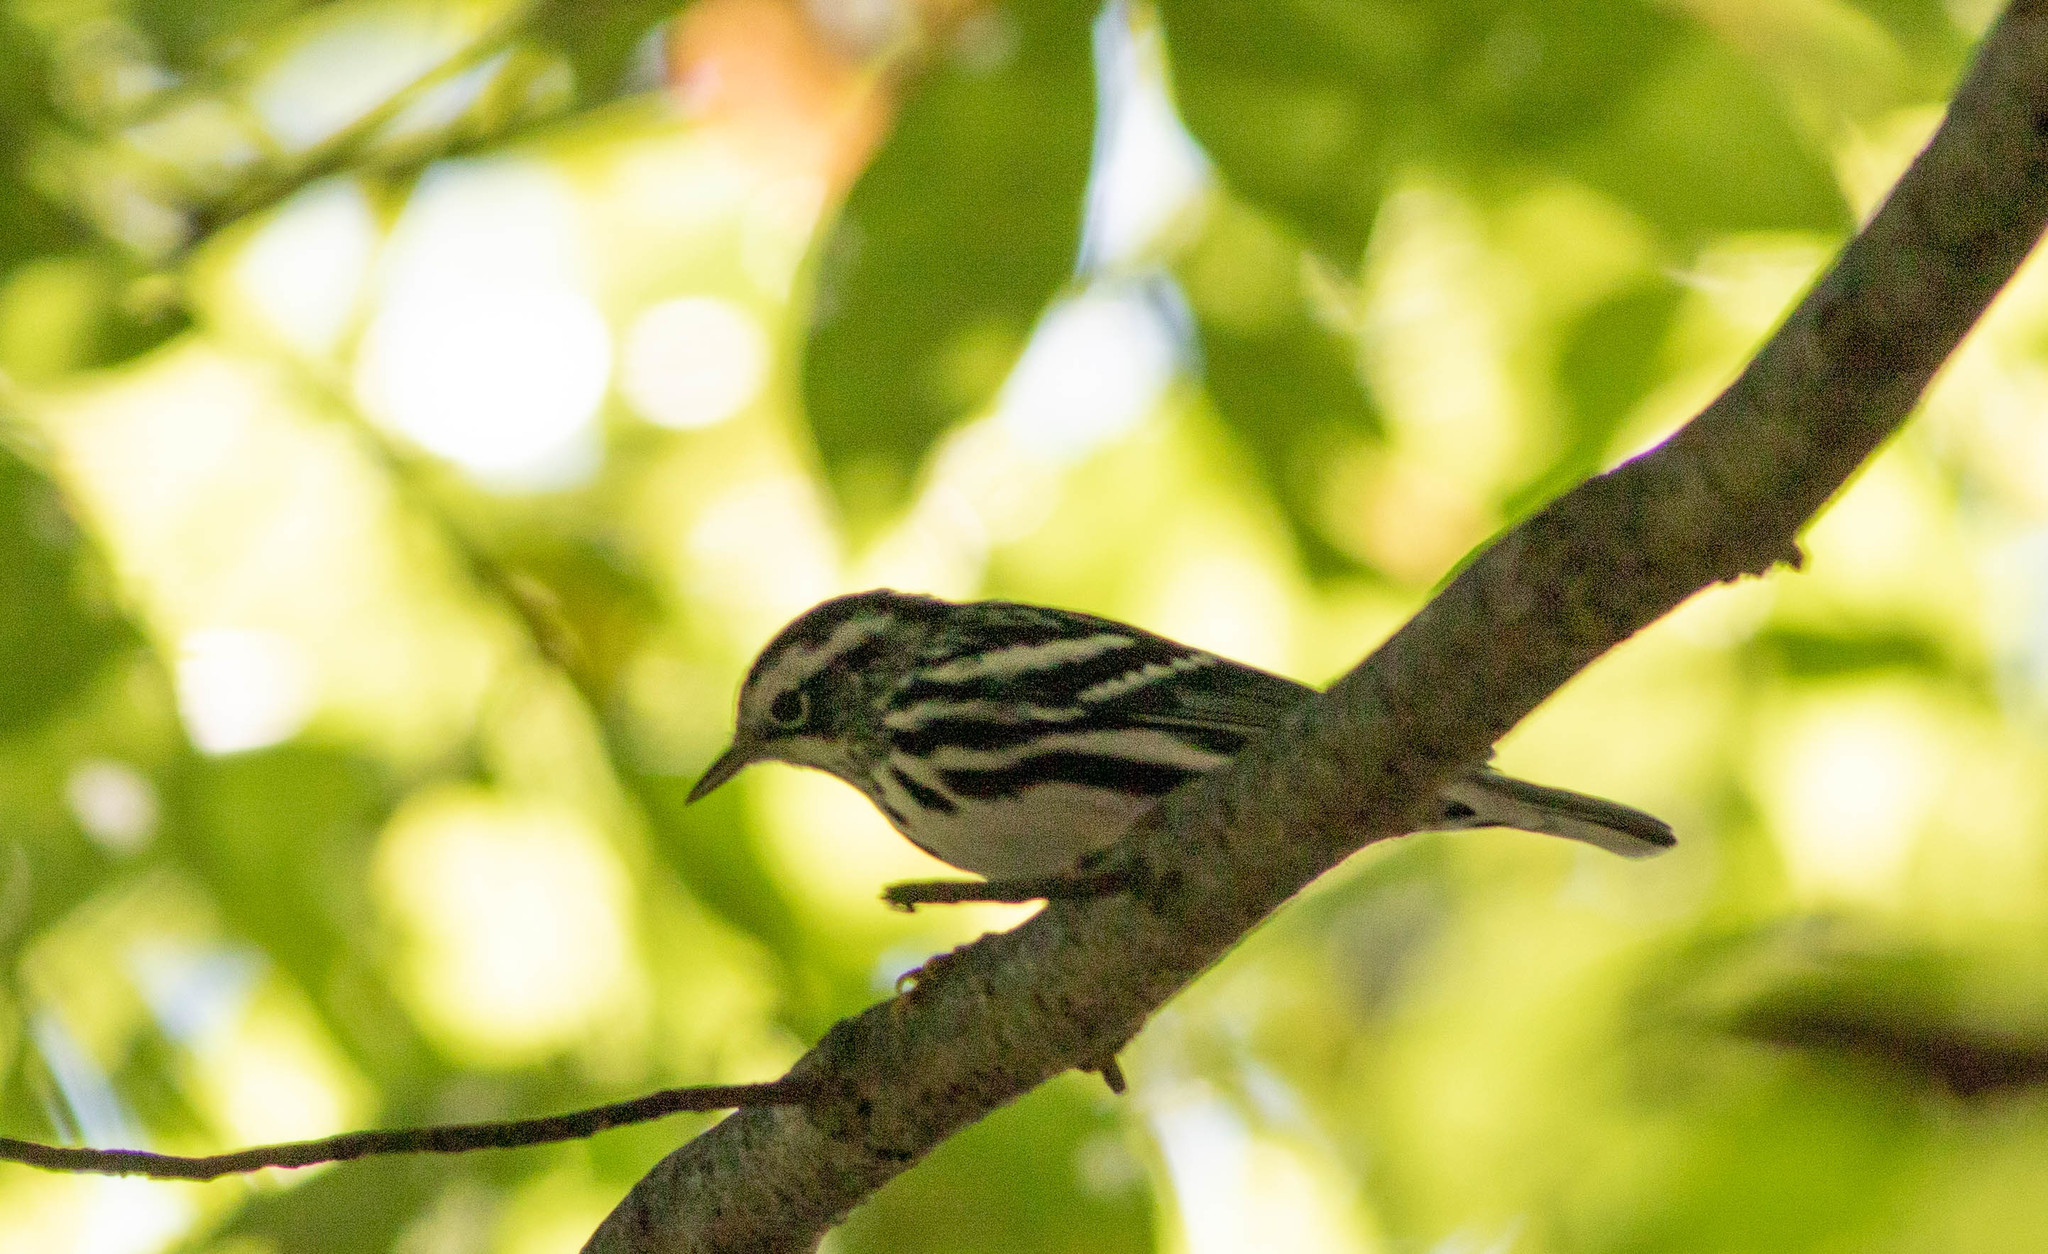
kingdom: Animalia
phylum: Chordata
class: Aves
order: Passeriformes
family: Parulidae
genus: Mniotilta
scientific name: Mniotilta varia
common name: Black-and-white warbler
